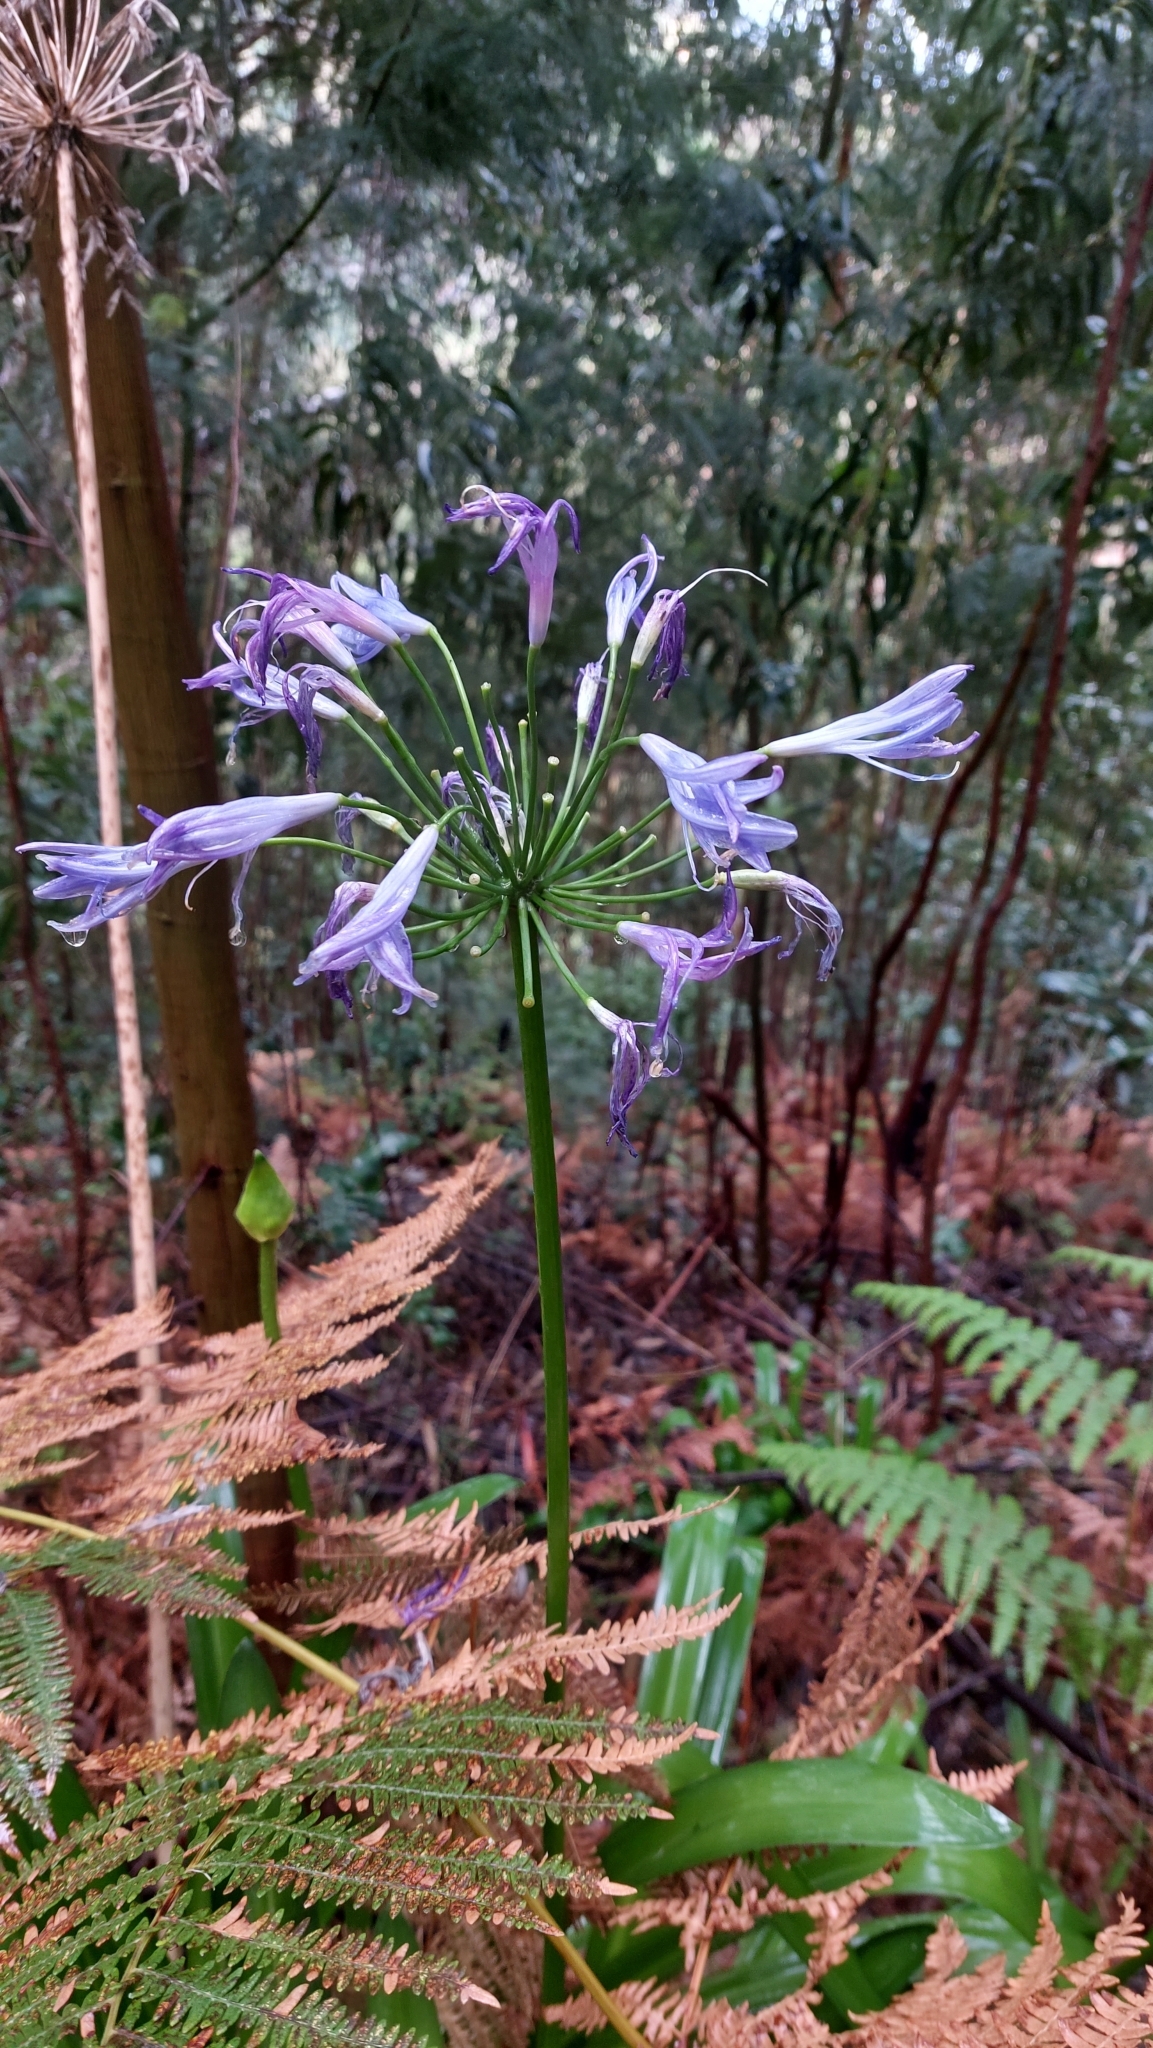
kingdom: Plantae
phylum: Tracheophyta
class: Liliopsida
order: Asparagales
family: Amaryllidaceae
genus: Agapanthus
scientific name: Agapanthus praecox
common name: African-lily
